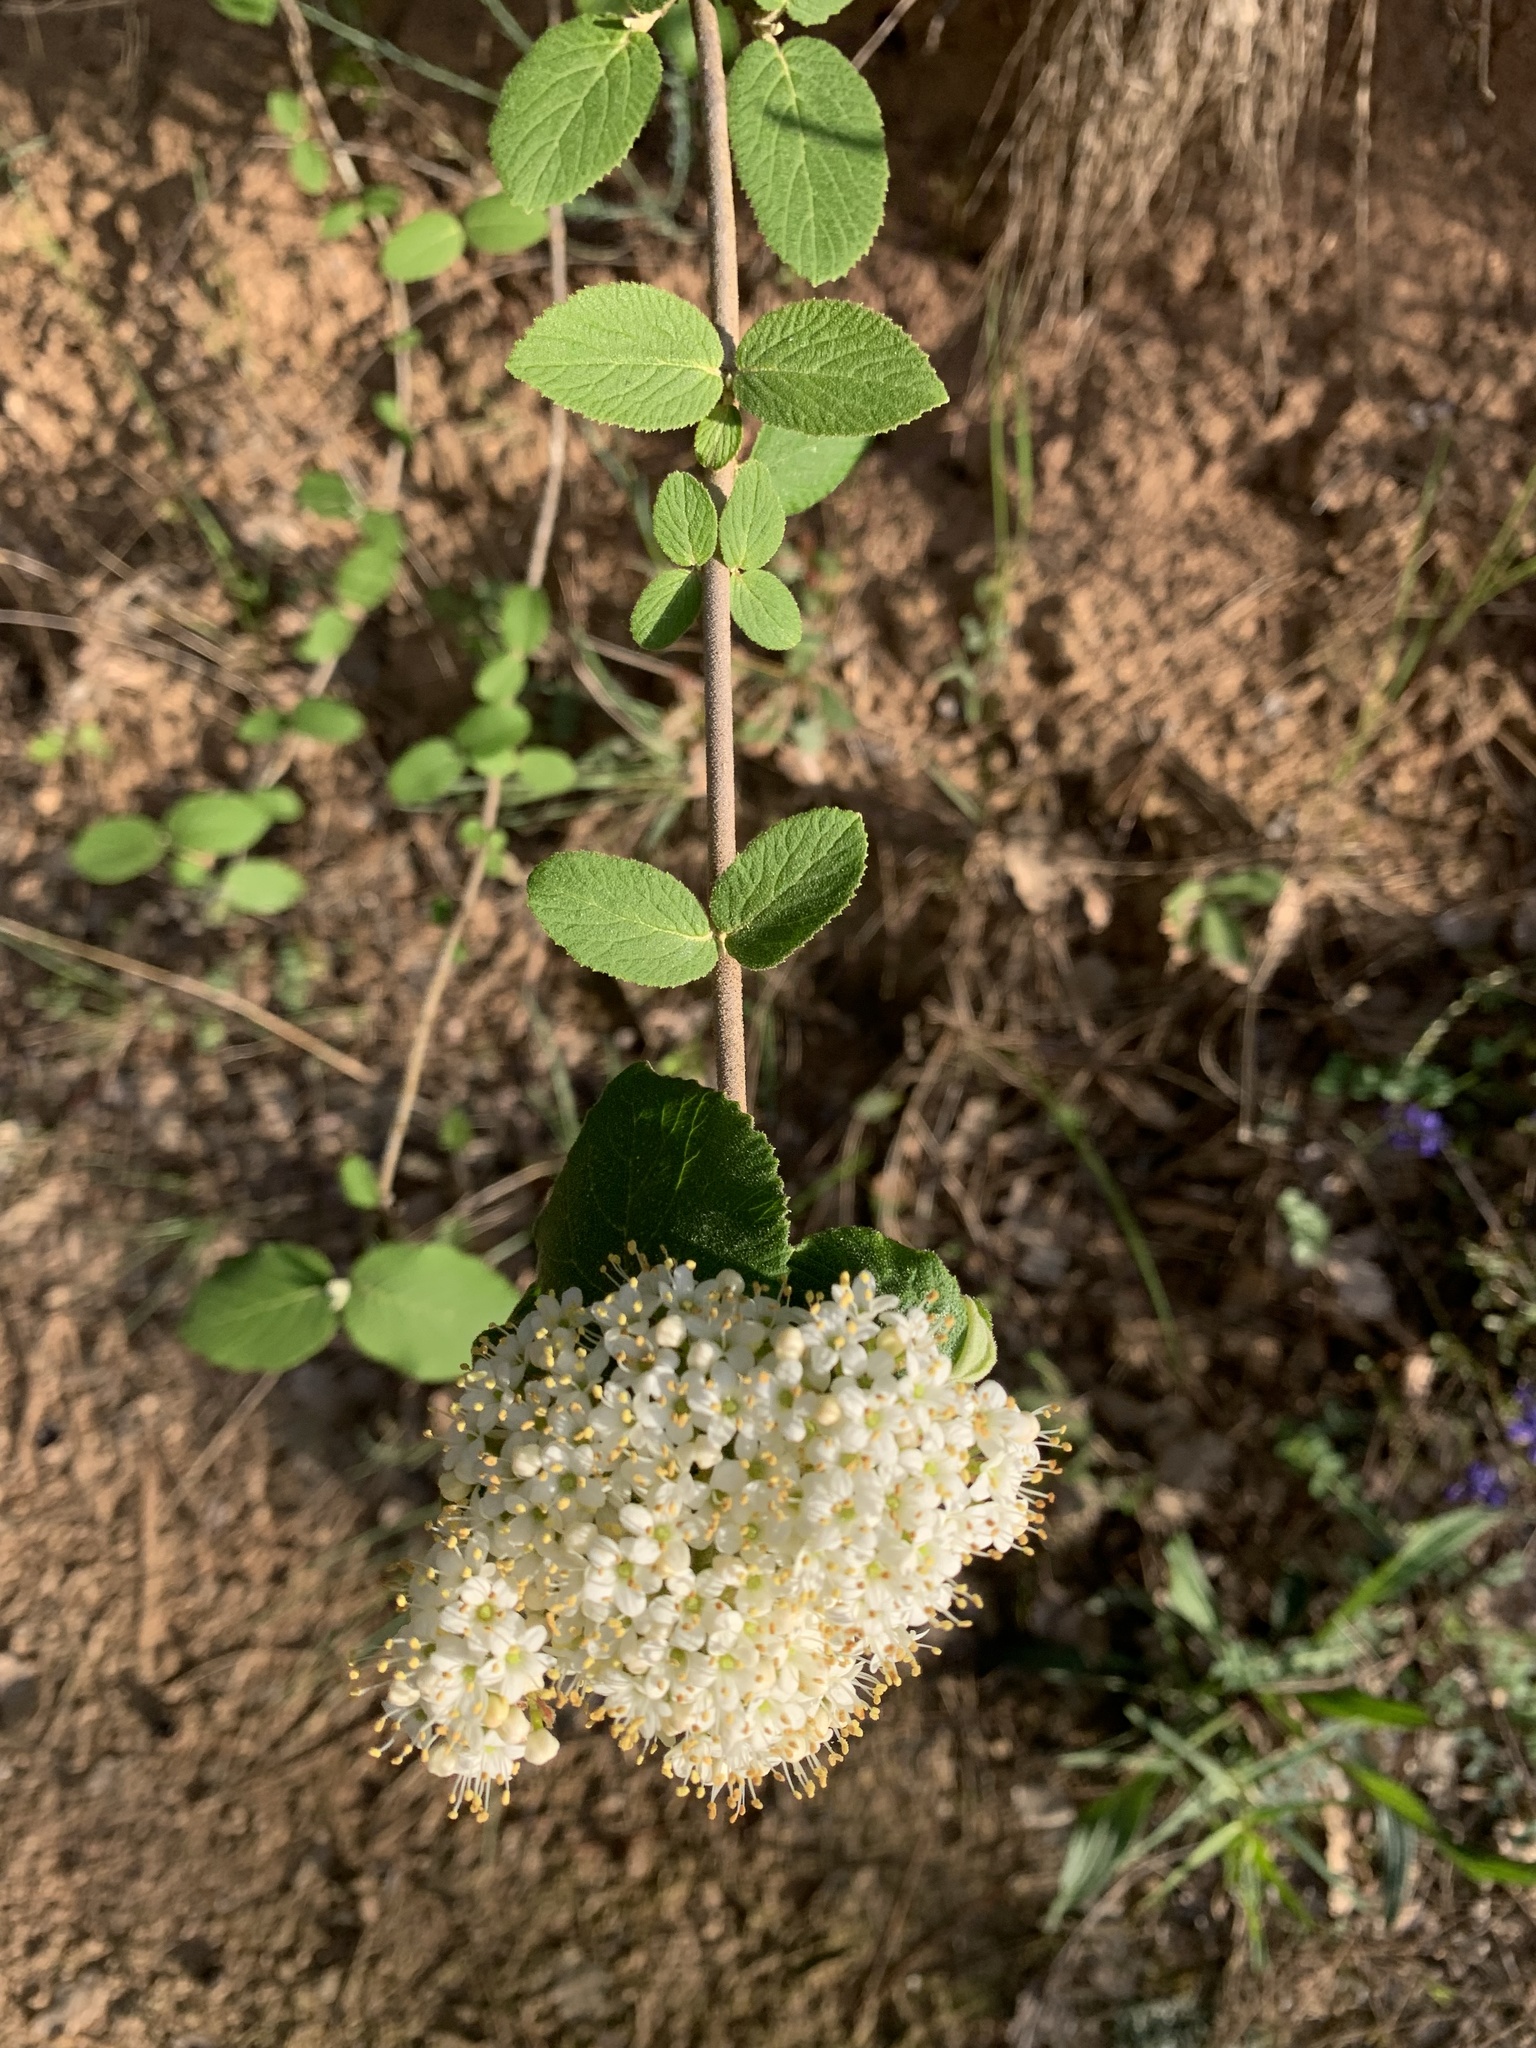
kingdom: Plantae
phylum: Tracheophyta
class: Magnoliopsida
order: Dipsacales
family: Viburnaceae
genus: Viburnum
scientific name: Viburnum lantana
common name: Wayfaring tree
